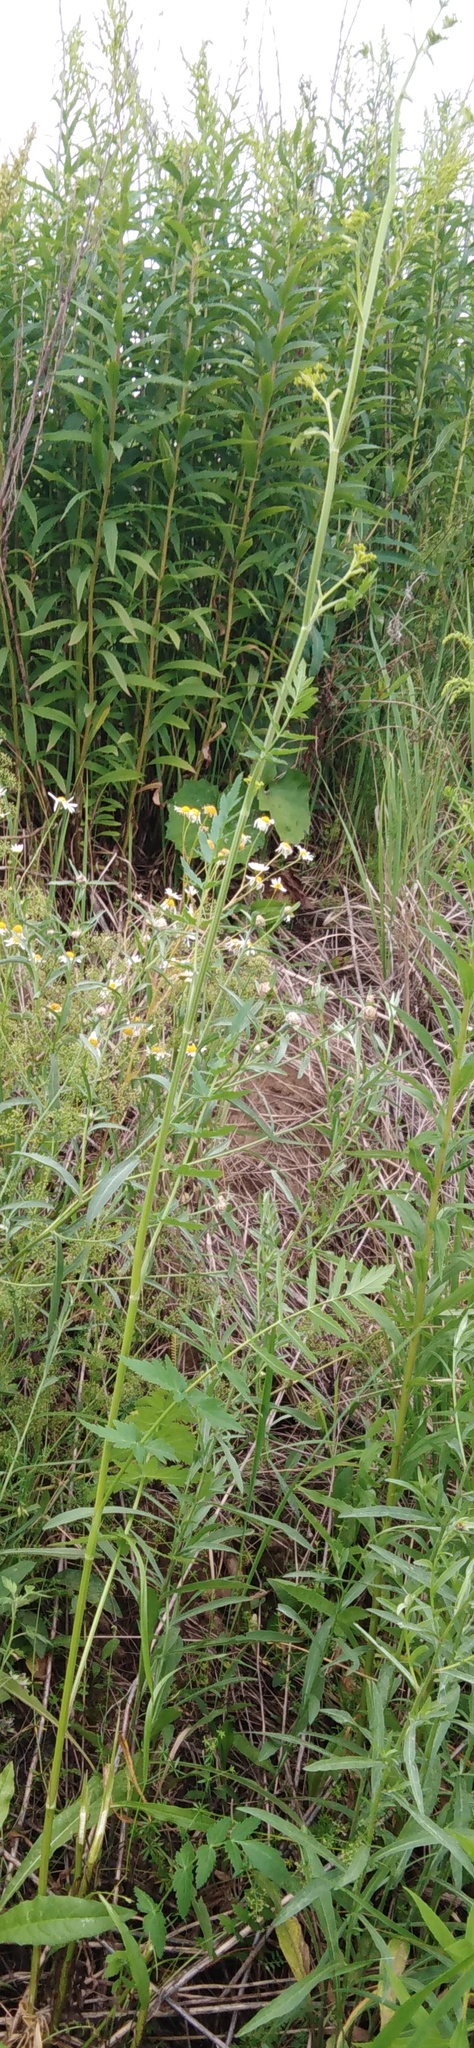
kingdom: Plantae
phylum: Tracheophyta
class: Magnoliopsida
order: Apiales
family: Apiaceae
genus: Pastinaca
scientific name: Pastinaca sativa
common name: Wild parsnip
